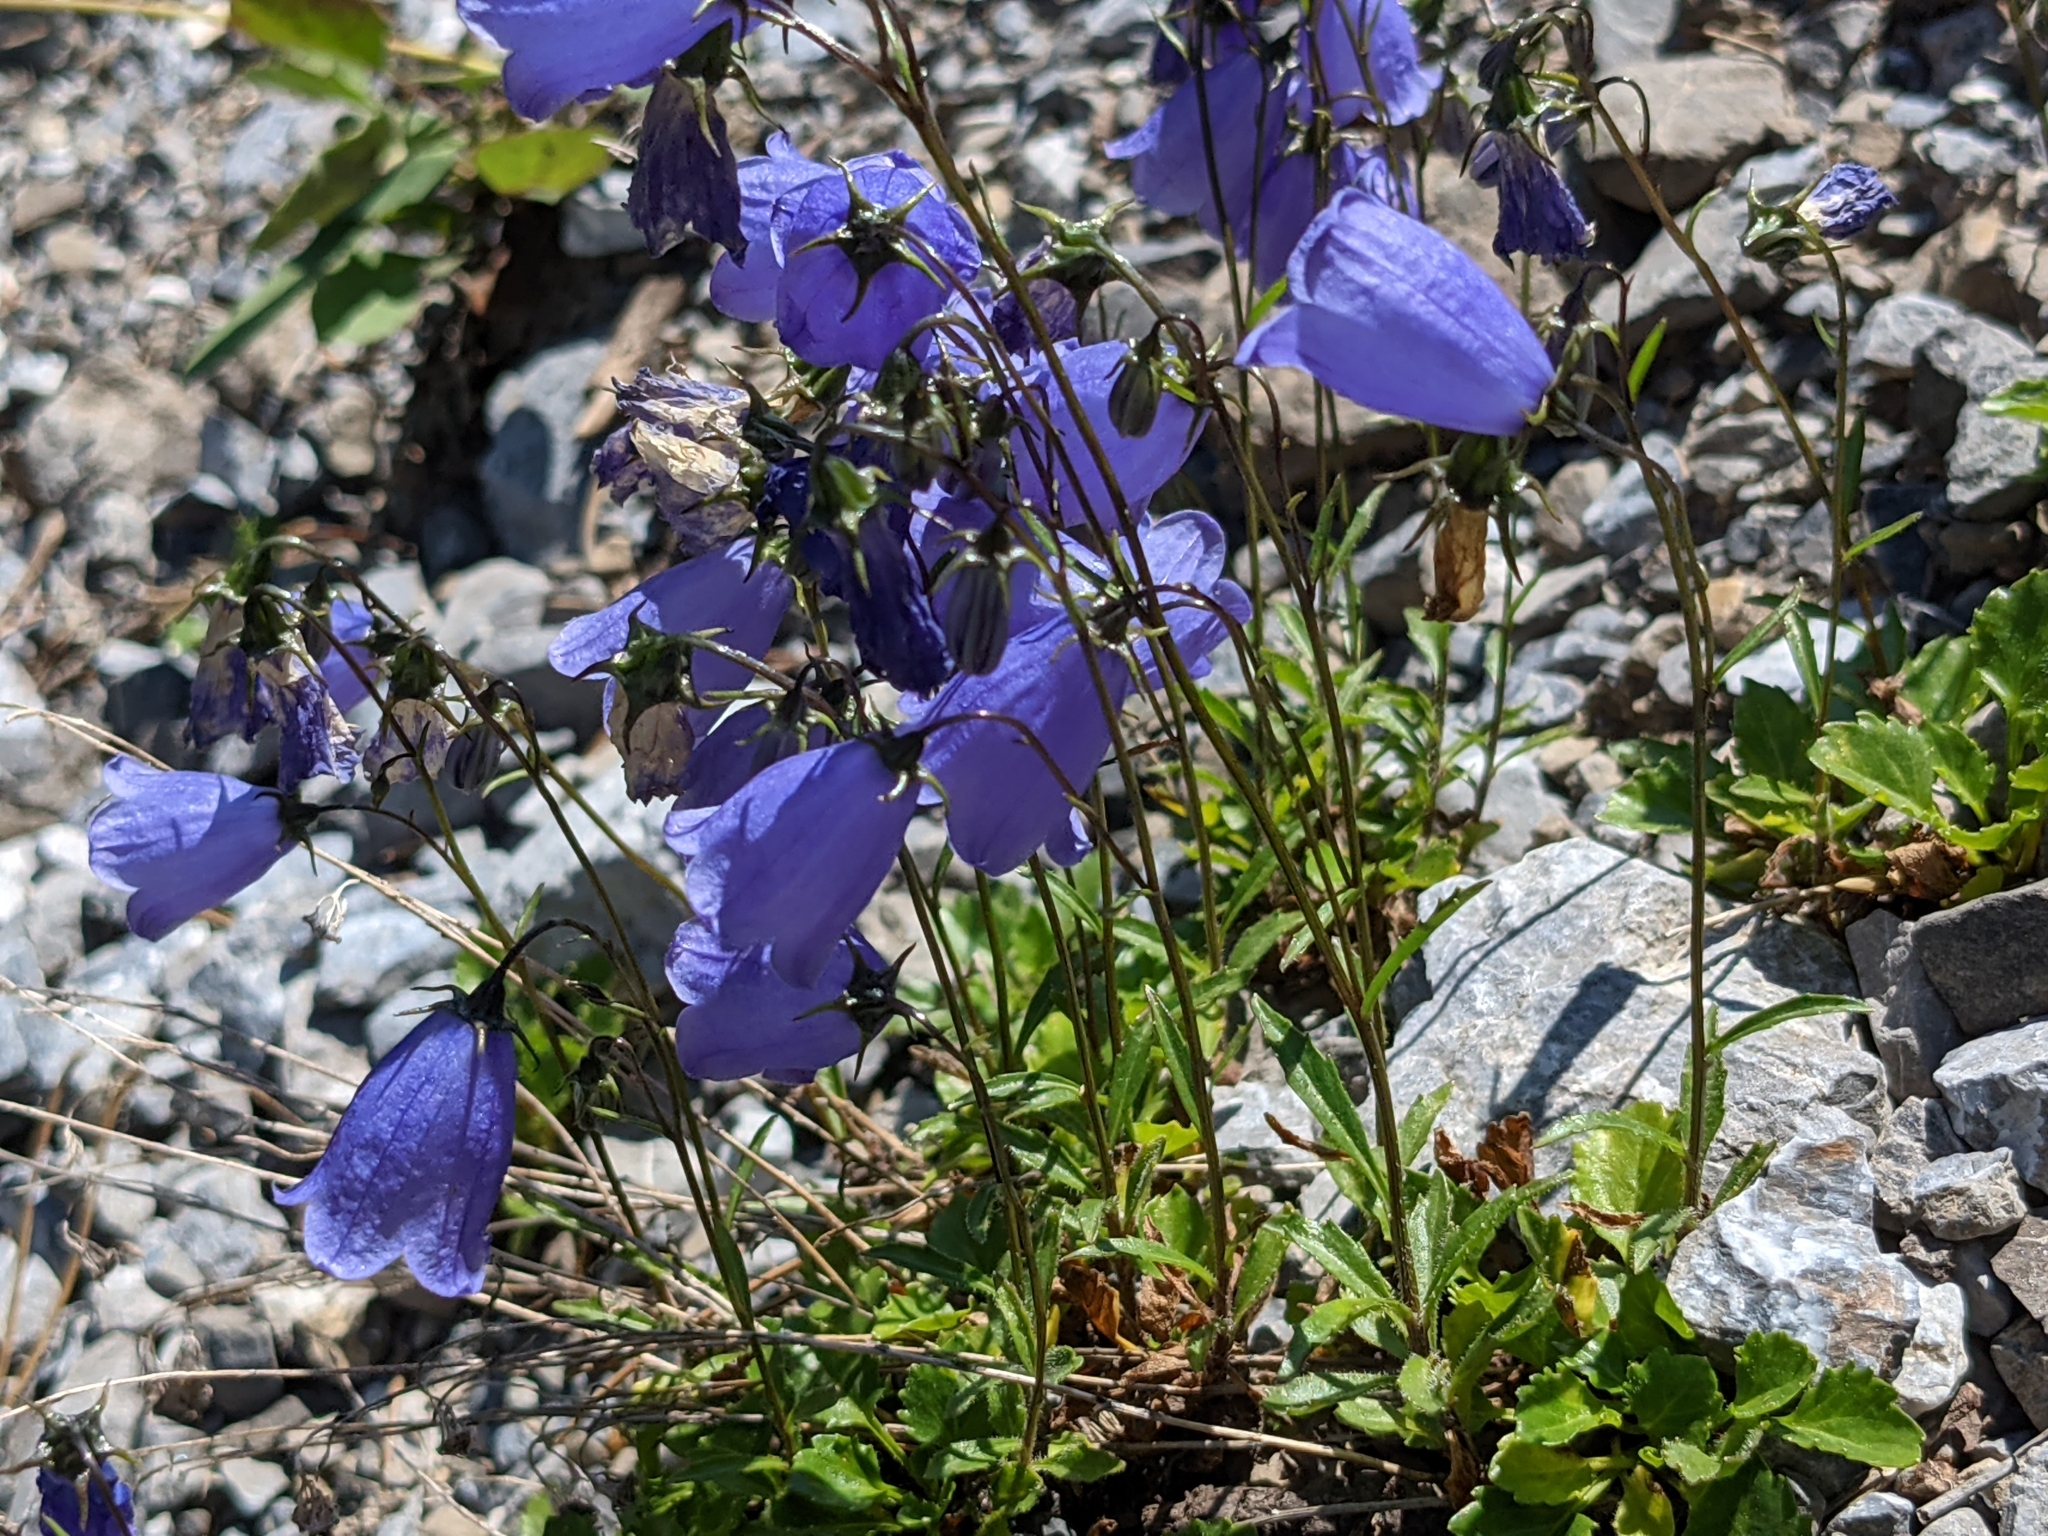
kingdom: Plantae
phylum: Tracheophyta
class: Magnoliopsida
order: Asterales
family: Campanulaceae
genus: Campanula
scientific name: Campanula cochleariifolia
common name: Fairies'-thimbles
